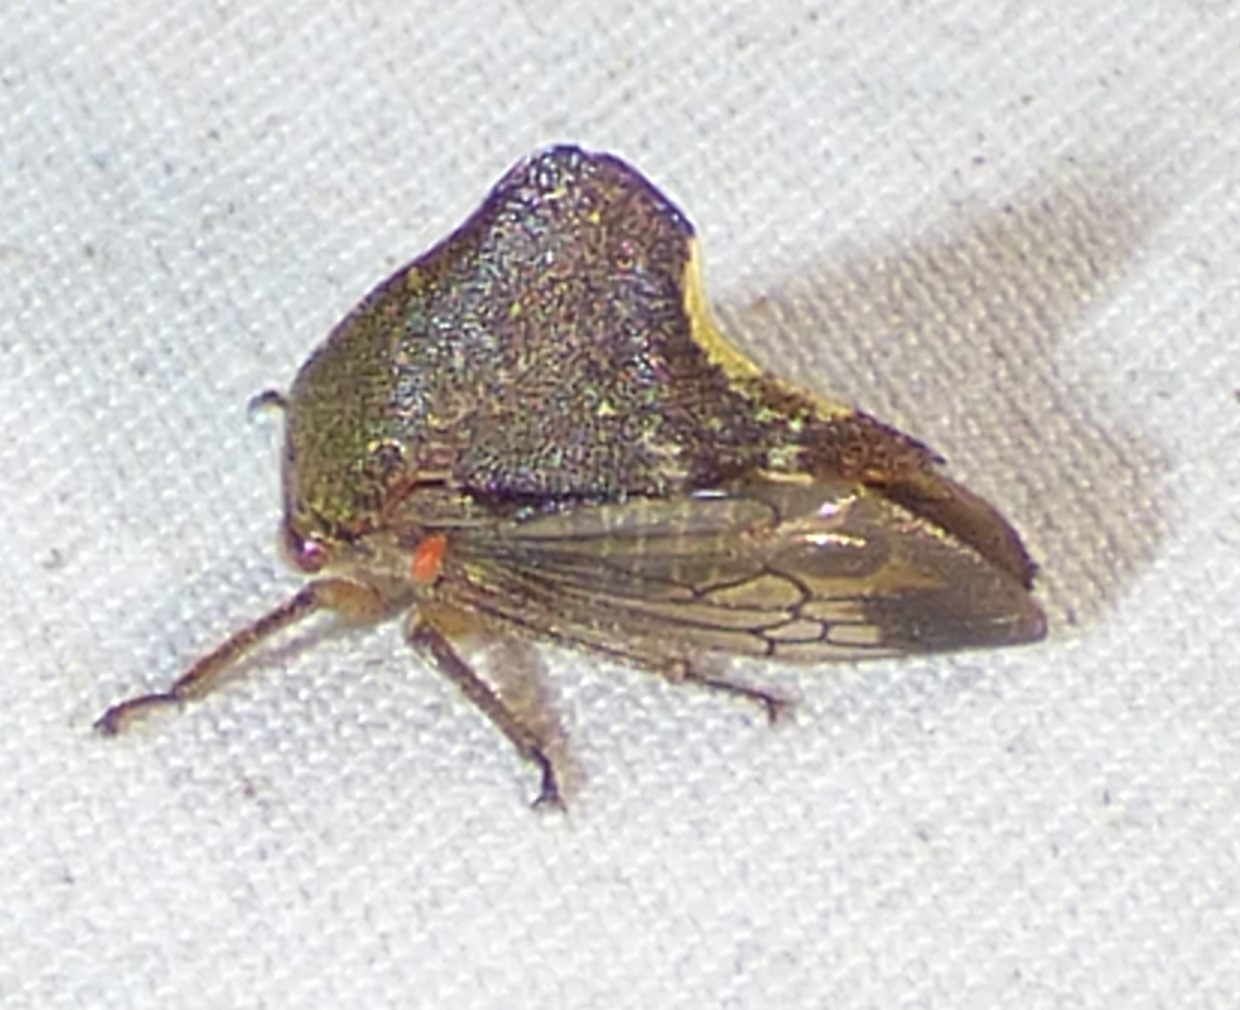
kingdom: Animalia
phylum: Arthropoda
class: Insecta
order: Hemiptera
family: Membracidae
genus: Telamona
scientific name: Telamona monticola
